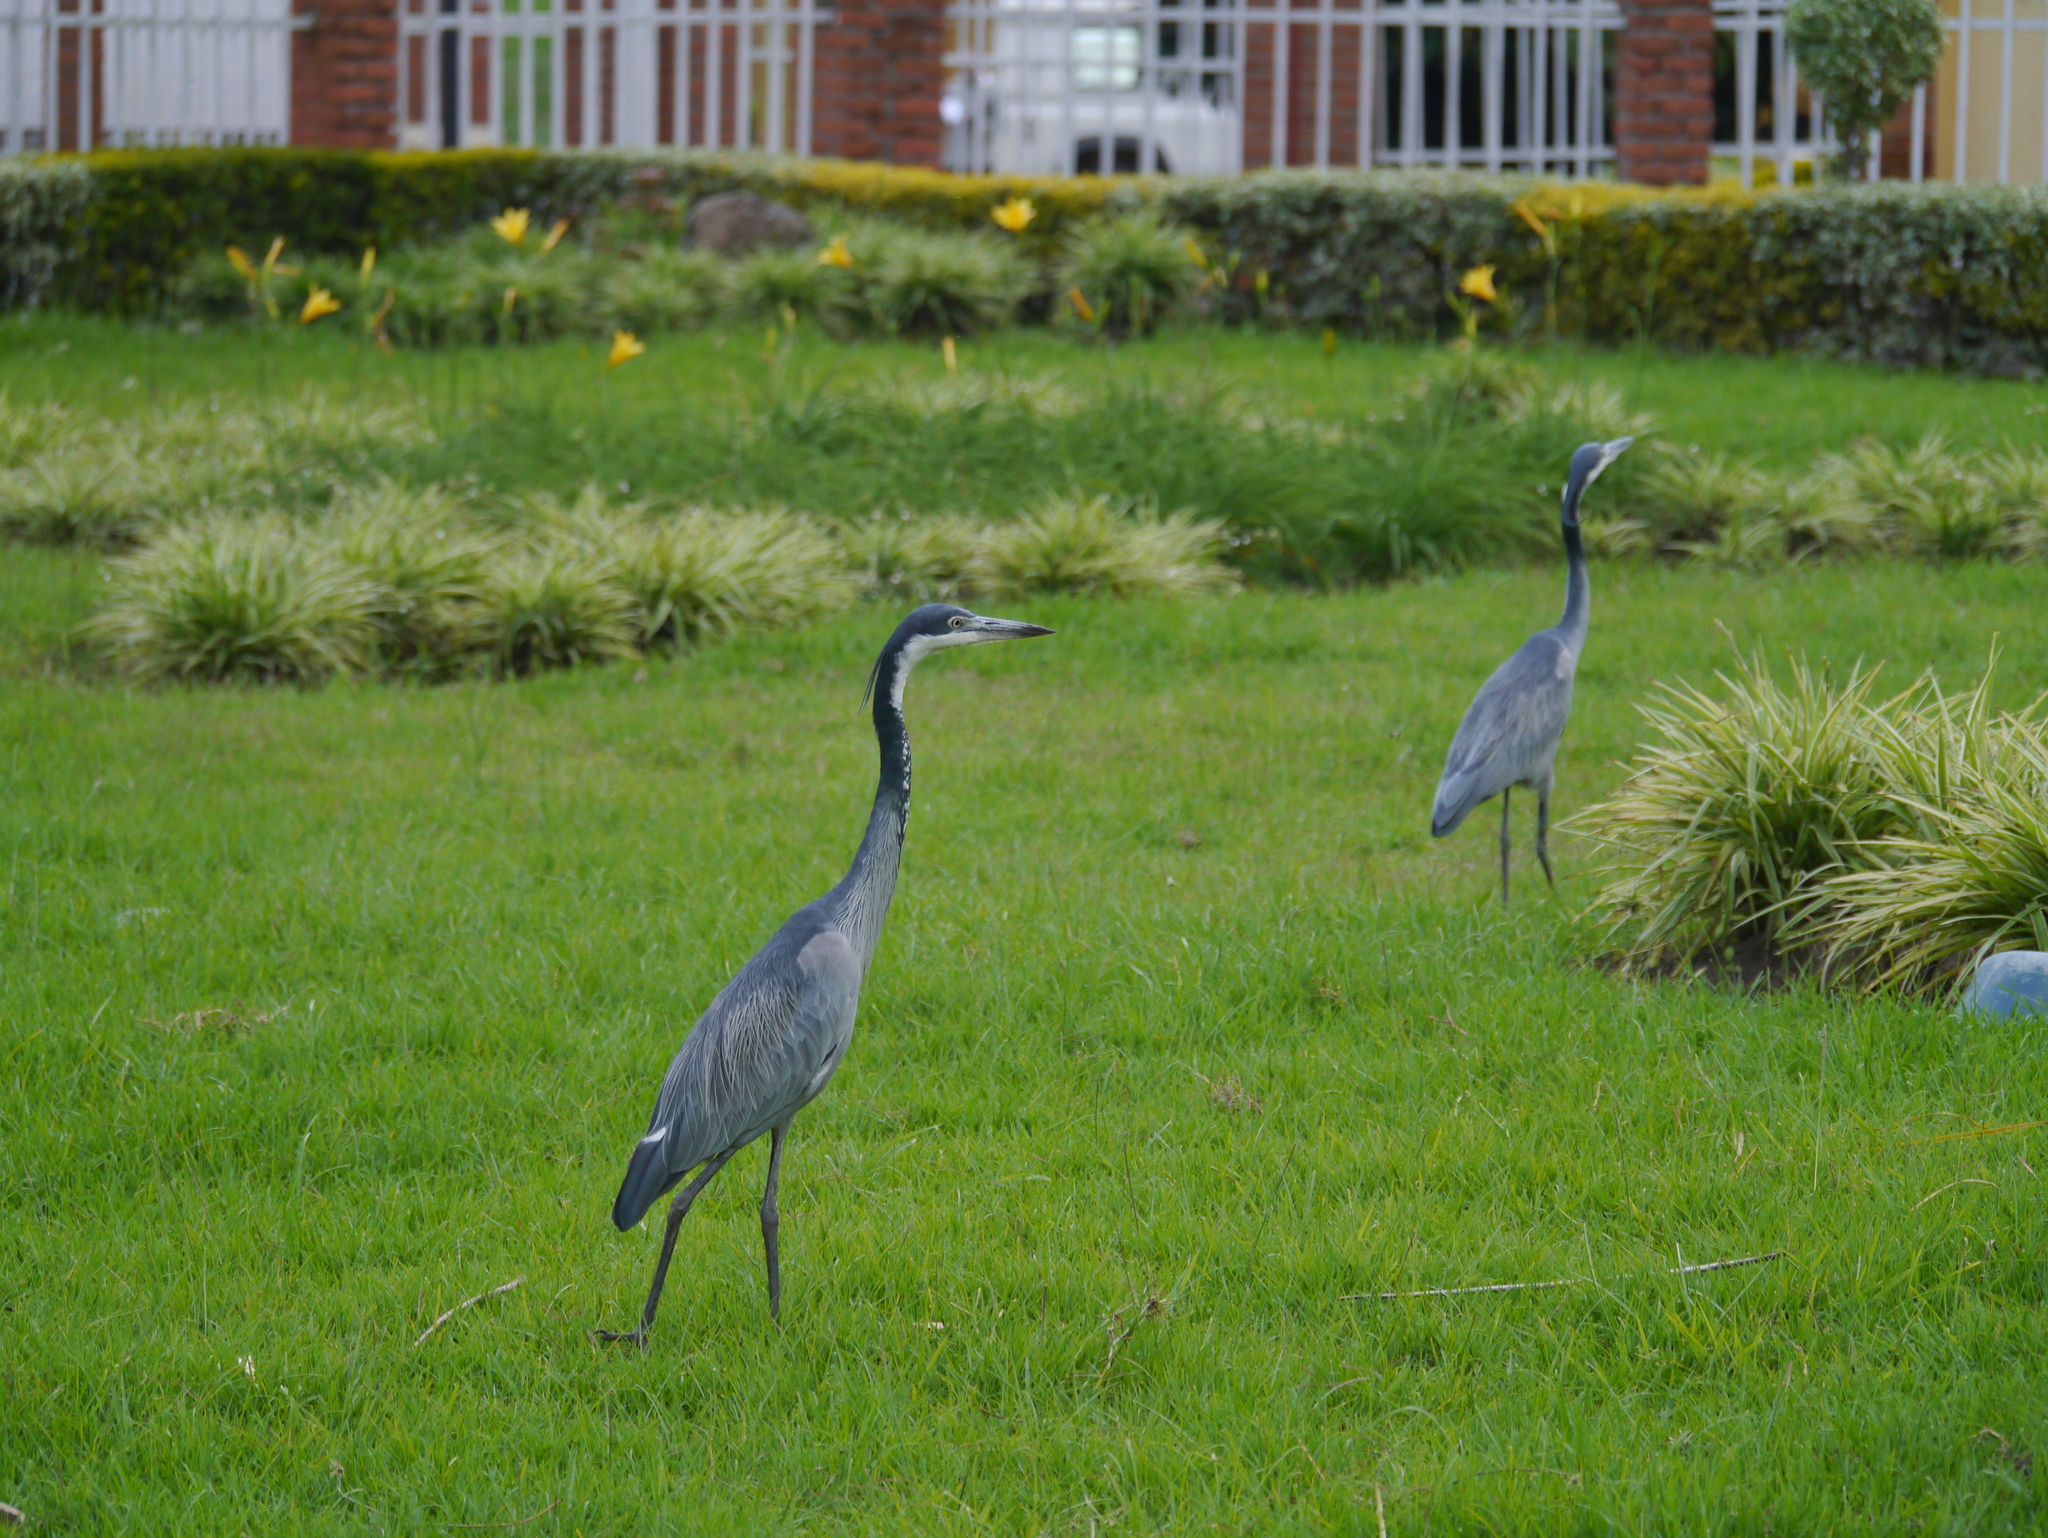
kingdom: Animalia
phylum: Chordata
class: Aves
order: Pelecaniformes
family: Ardeidae
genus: Ardea
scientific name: Ardea melanocephala
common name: Black-headed heron
